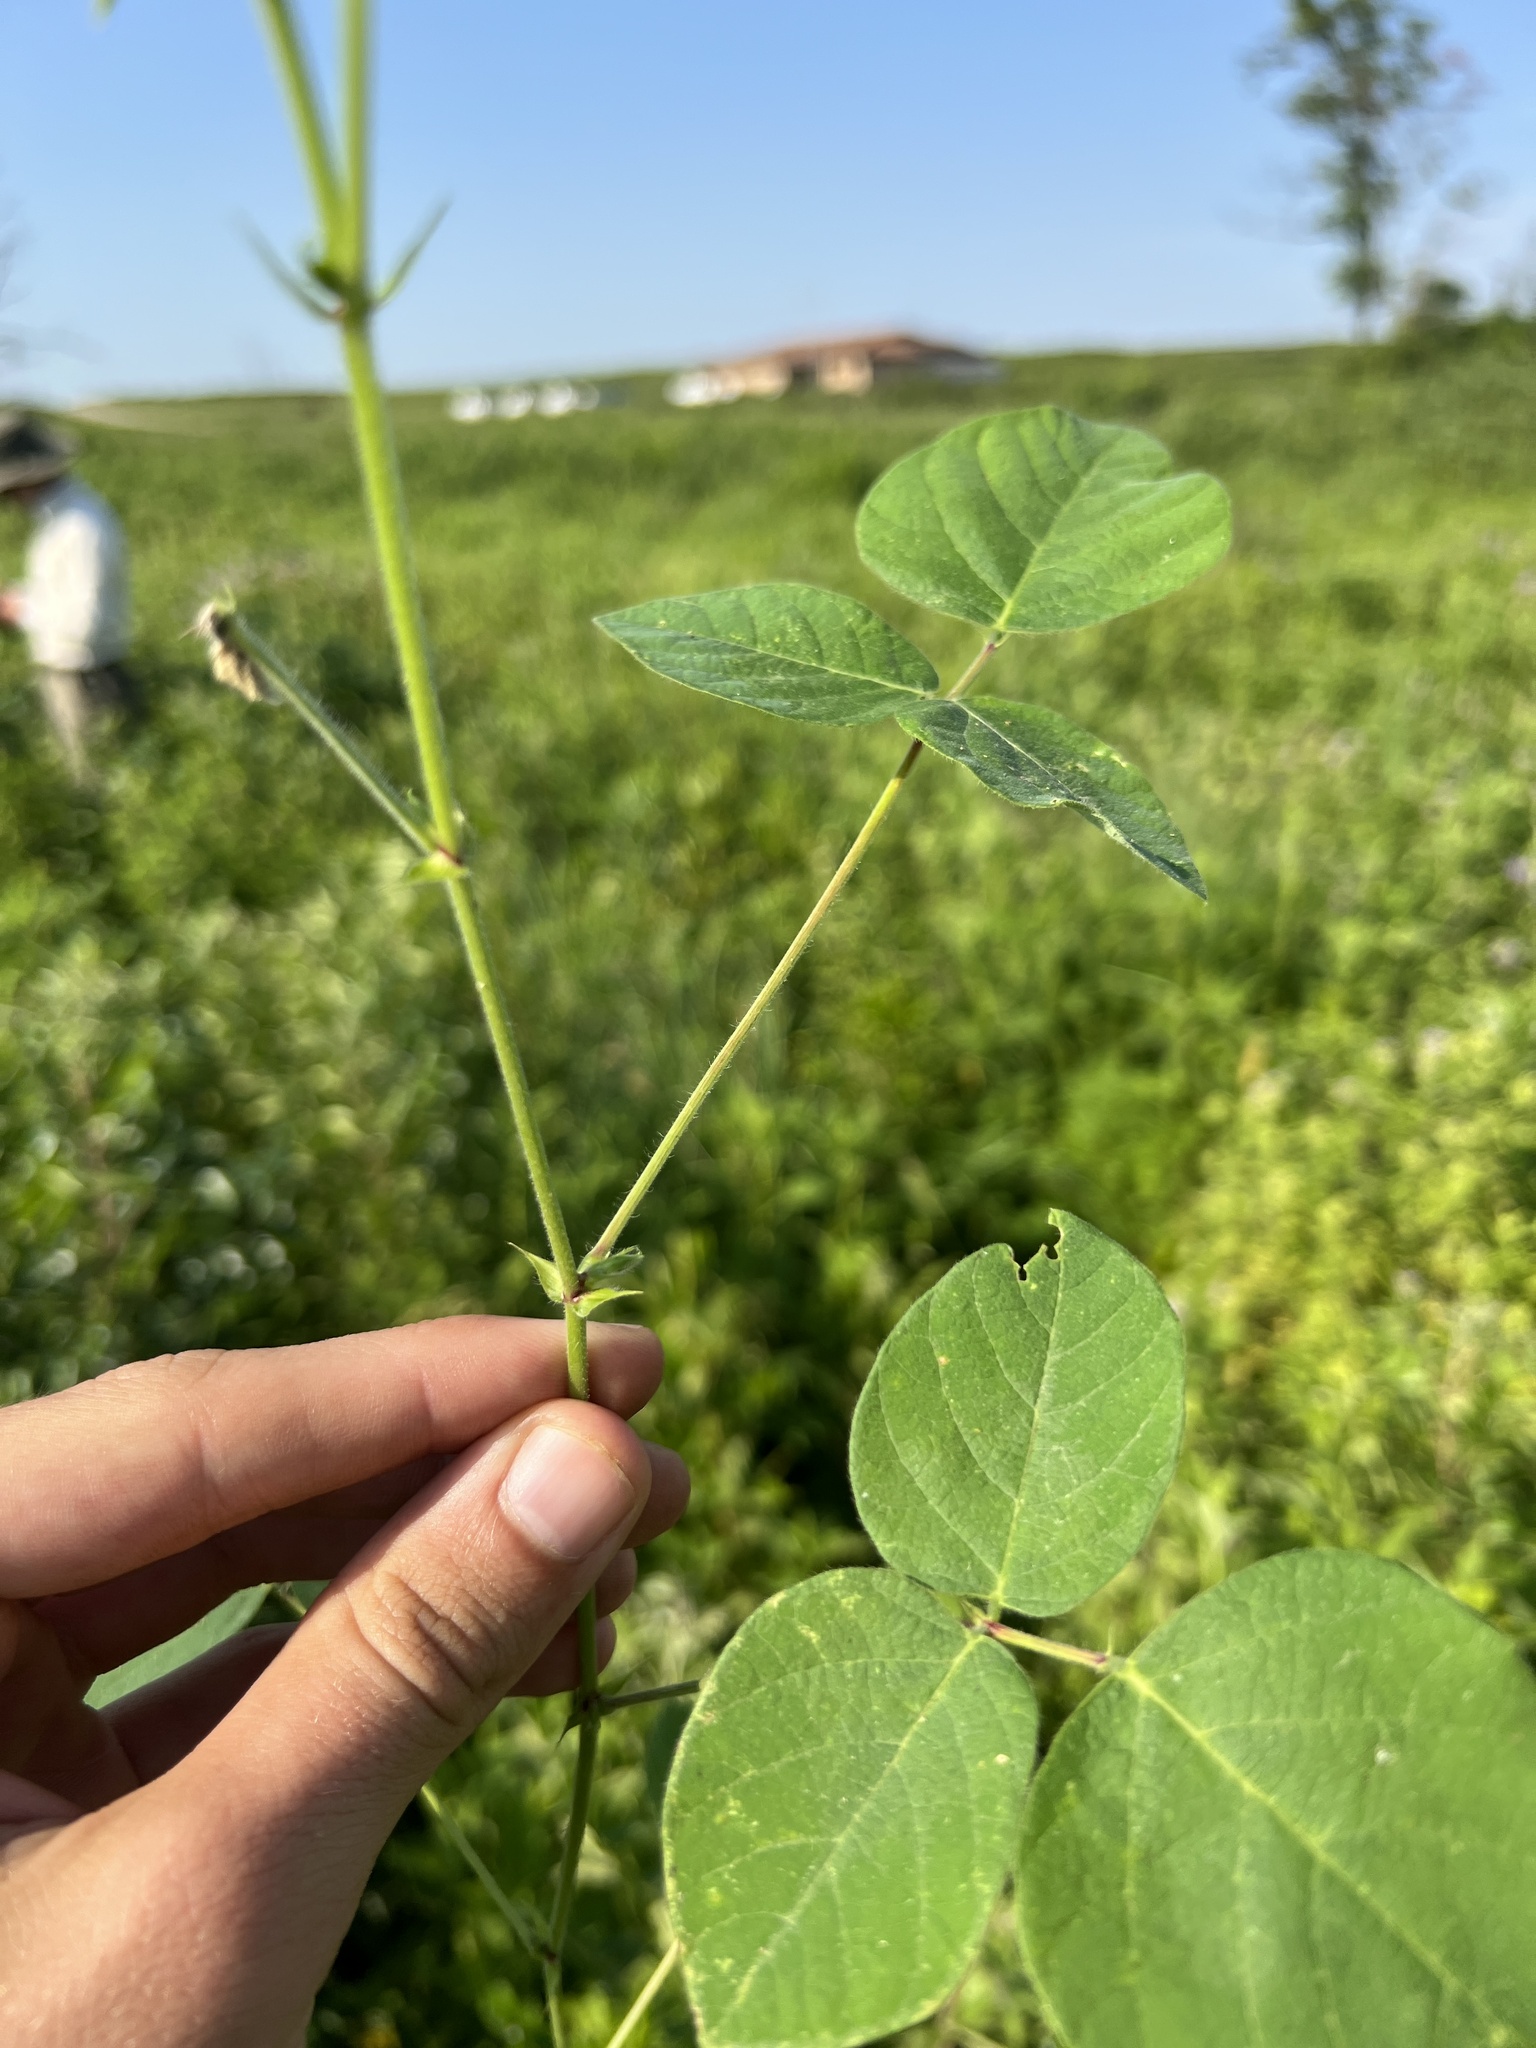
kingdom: Plantae
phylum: Tracheophyta
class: Magnoliopsida
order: Fabales
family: Fabaceae
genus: Desmodium
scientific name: Desmodium canescens
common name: Hoary tick-clover
